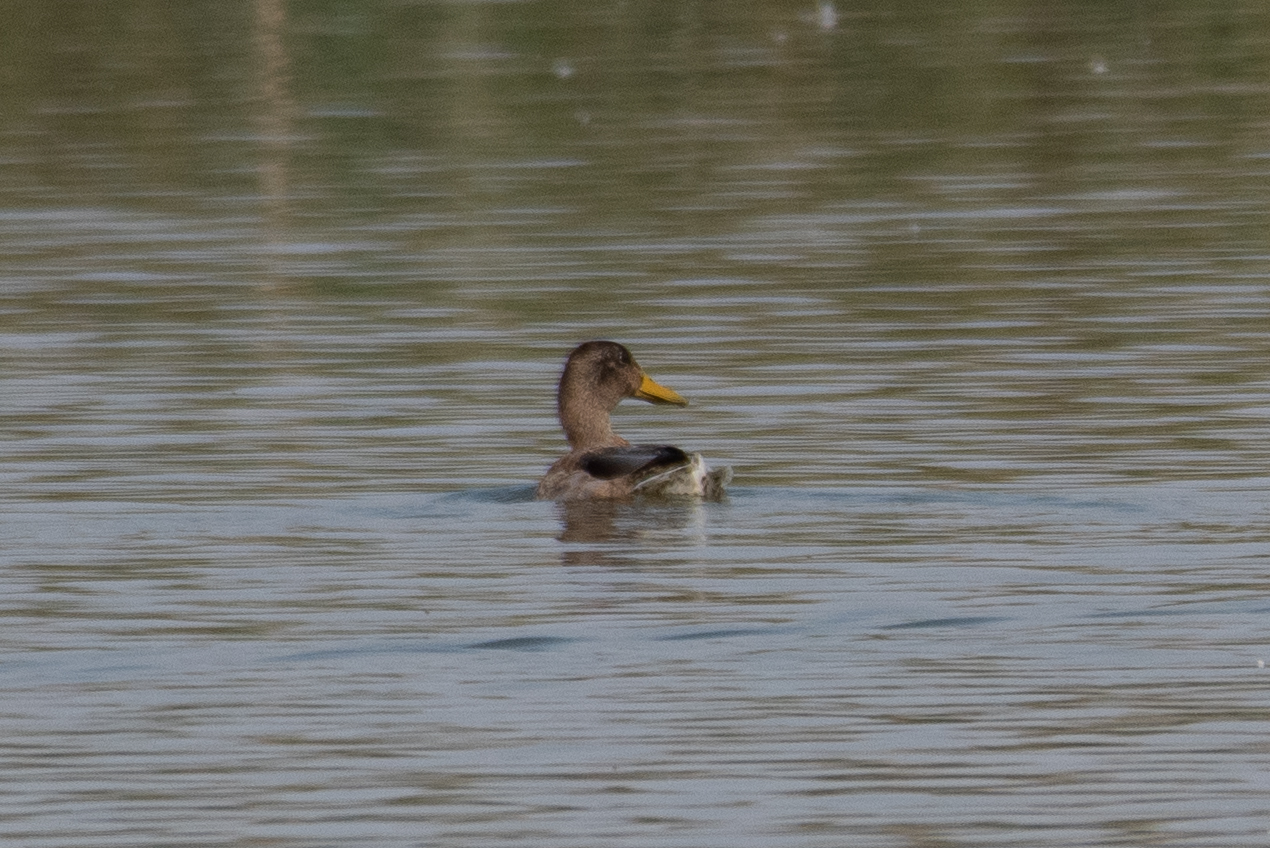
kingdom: Animalia
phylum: Chordata
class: Aves
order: Anseriformes
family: Anatidae
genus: Anas
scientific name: Anas platyrhynchos
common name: Mallard
